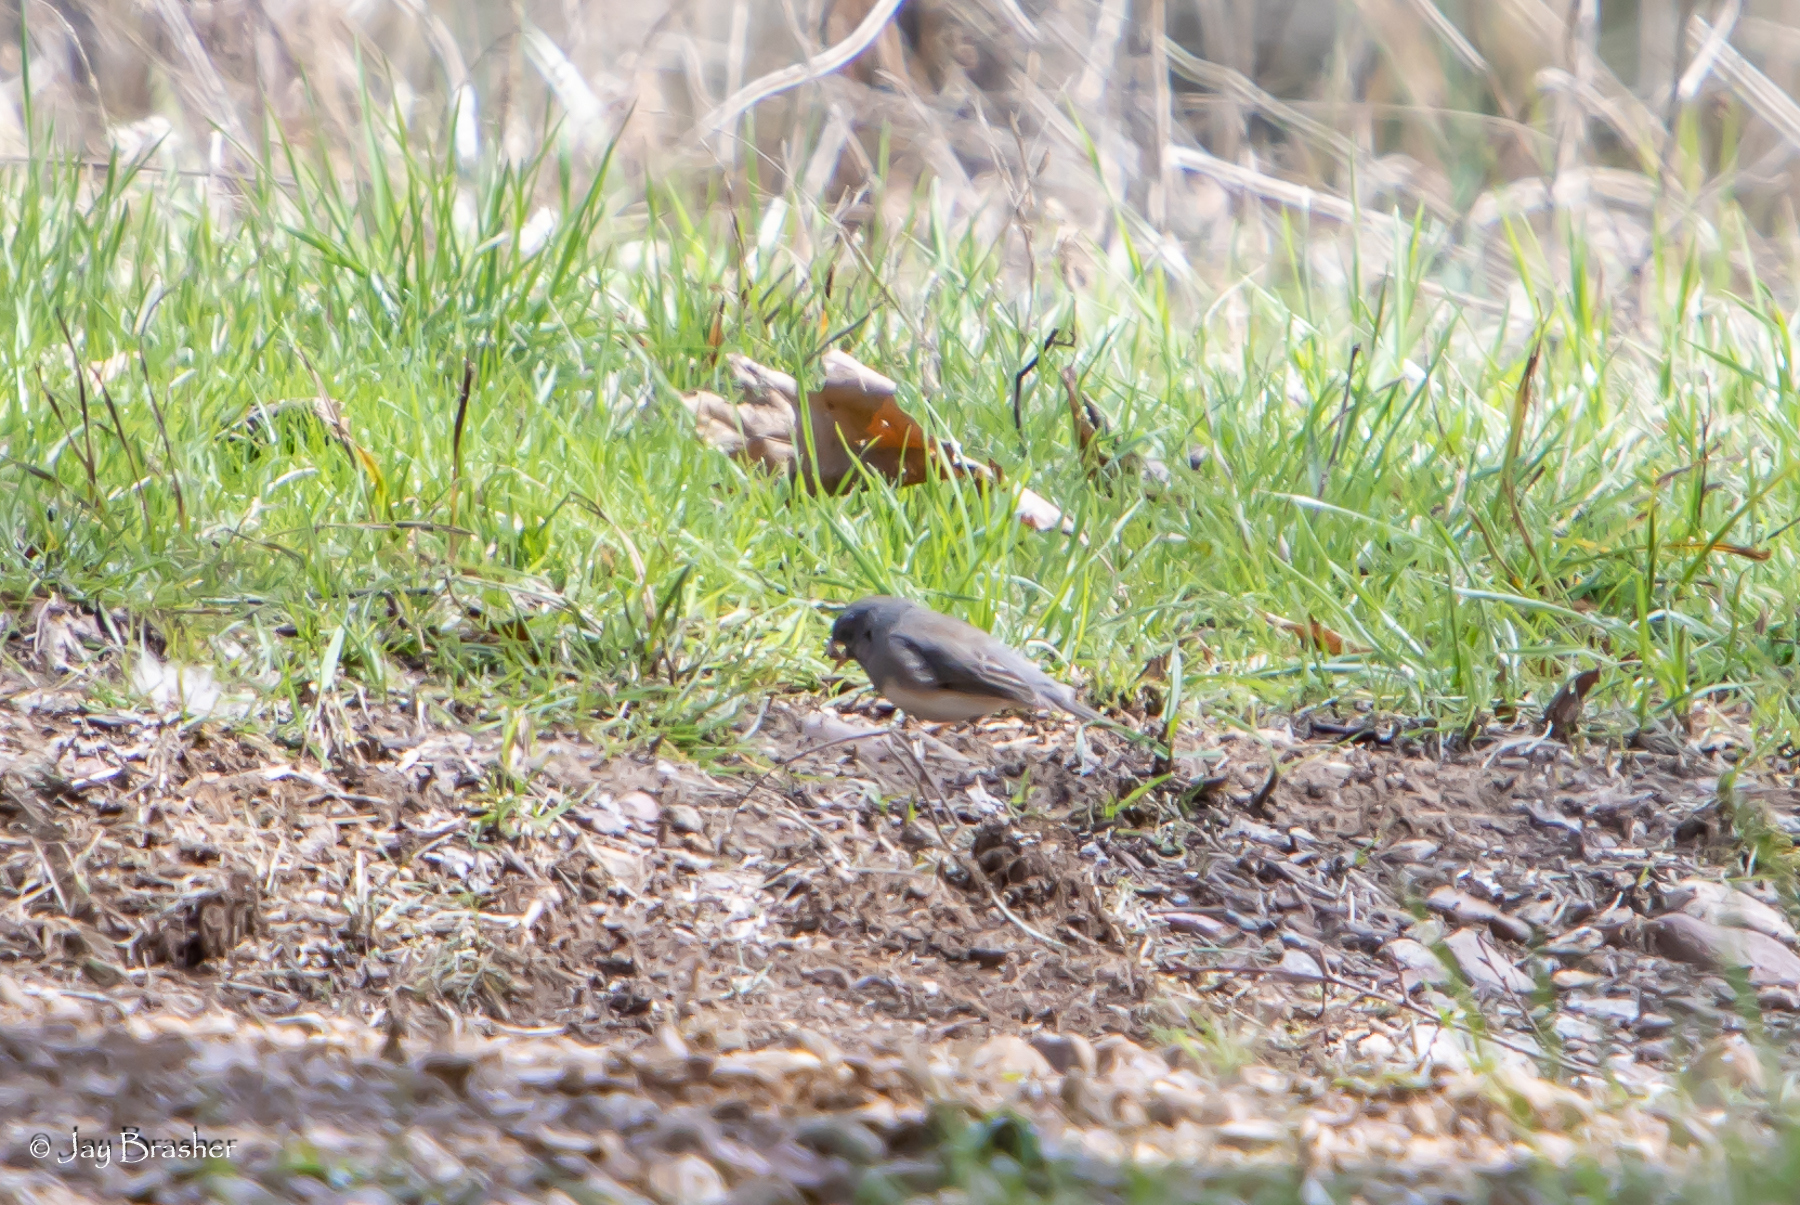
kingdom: Animalia
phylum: Chordata
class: Aves
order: Passeriformes
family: Passerellidae
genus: Junco
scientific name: Junco hyemalis
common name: Dark-eyed junco
